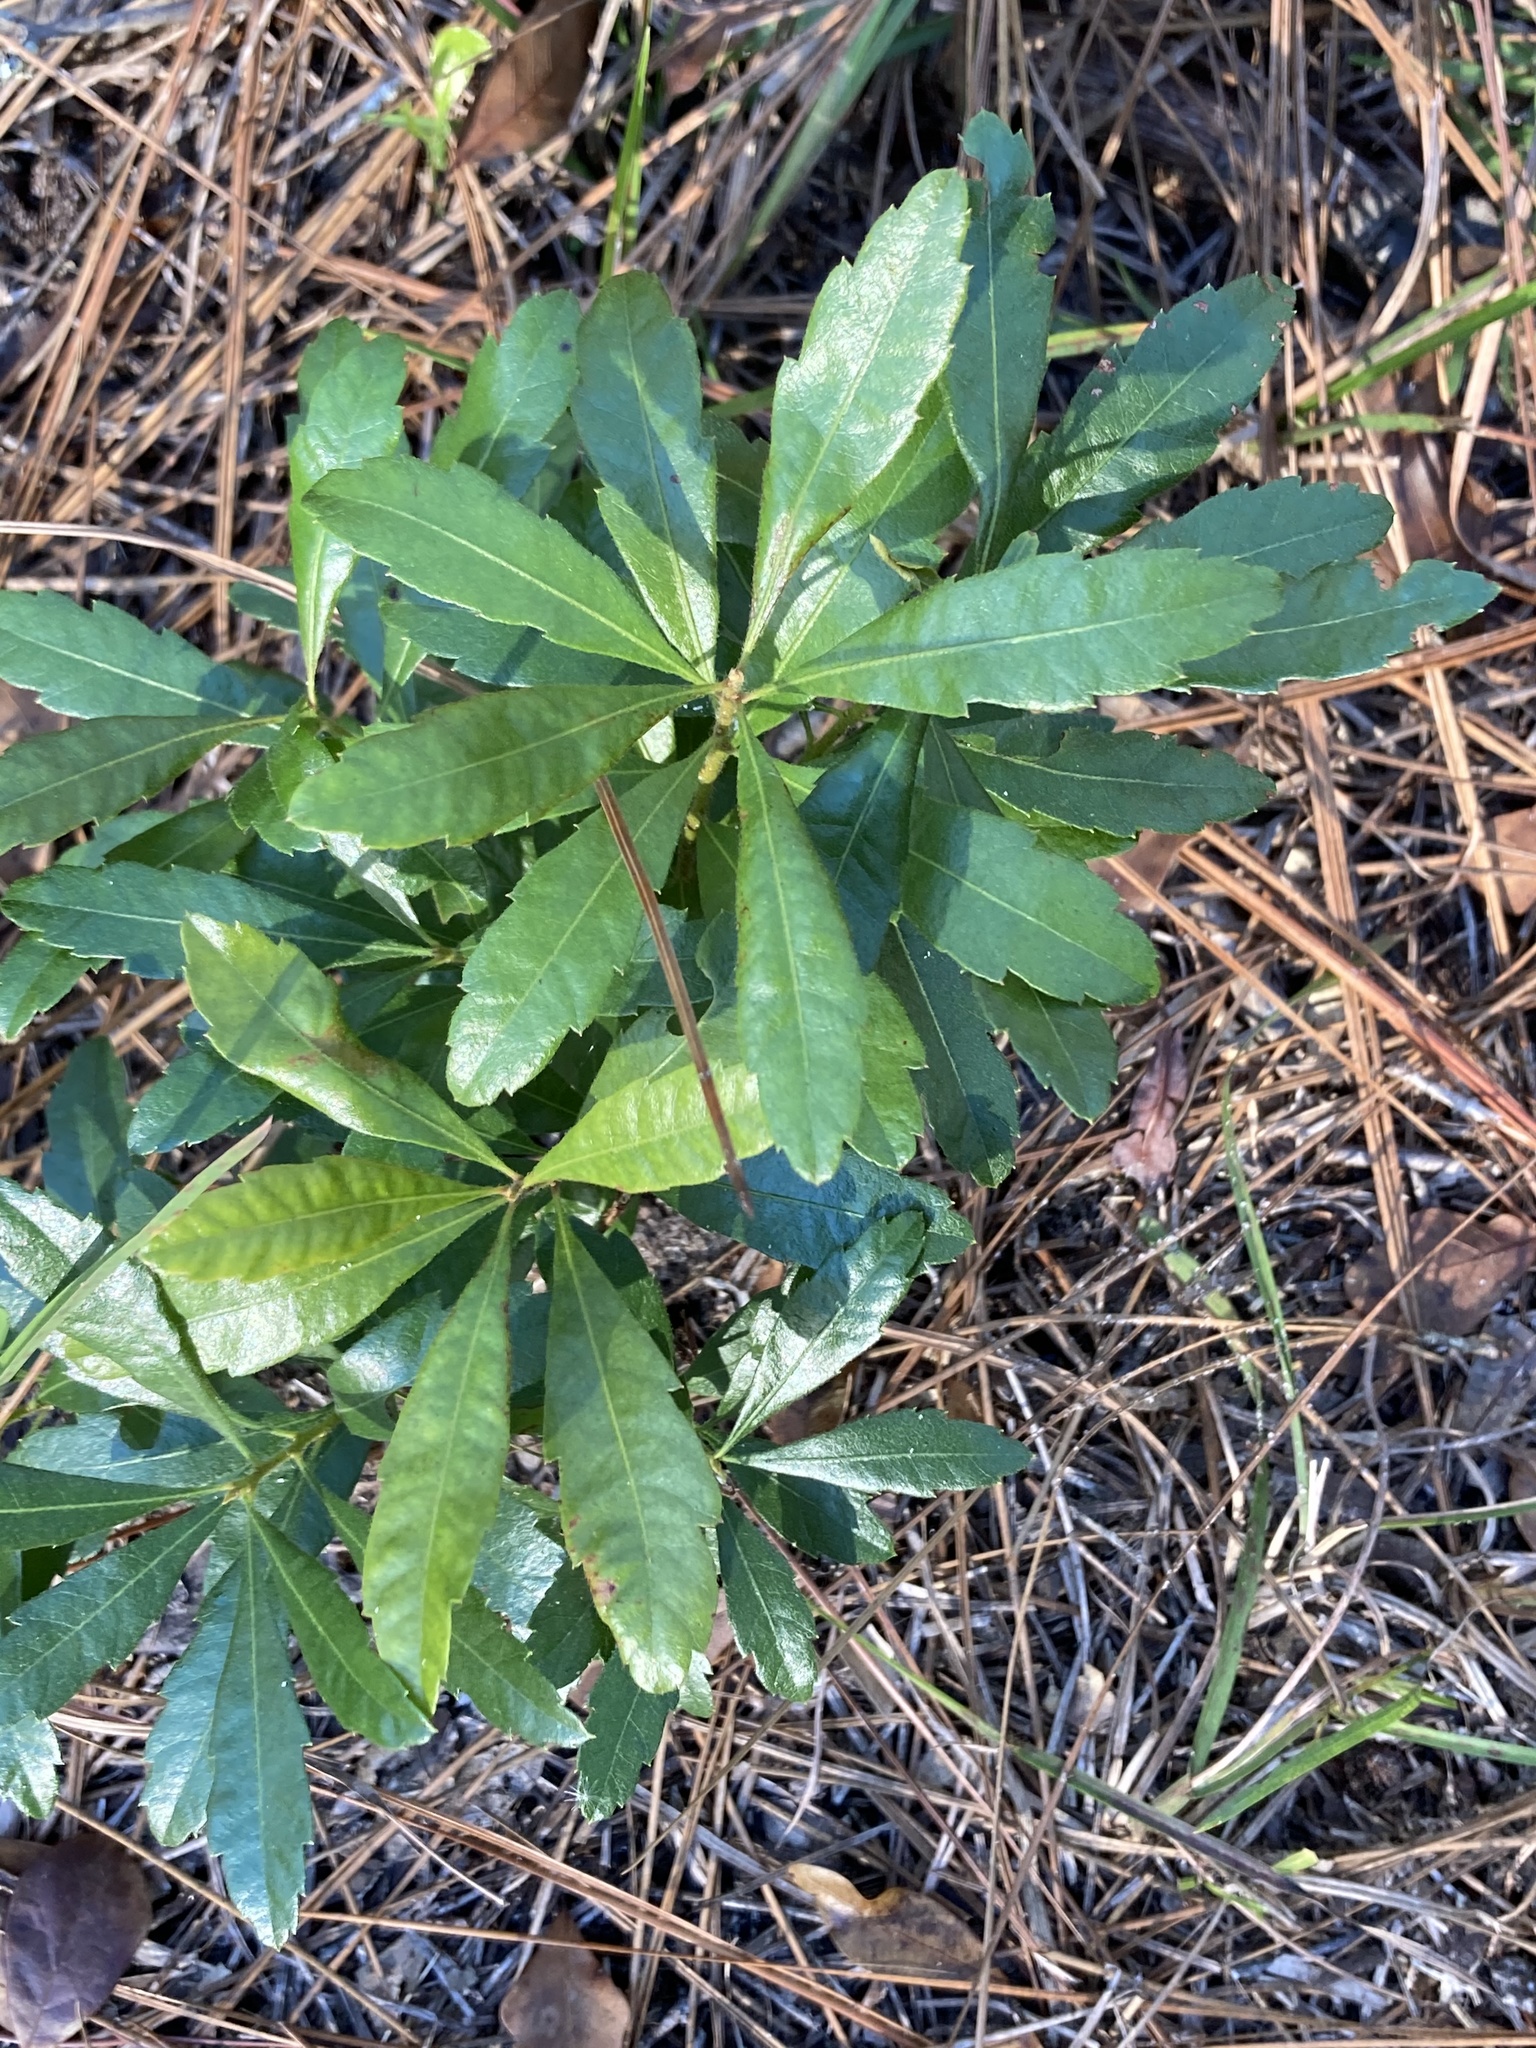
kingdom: Plantae
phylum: Tracheophyta
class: Magnoliopsida
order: Fagales
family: Myricaceae
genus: Morella
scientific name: Morella cerifera
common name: Wax myrtle
